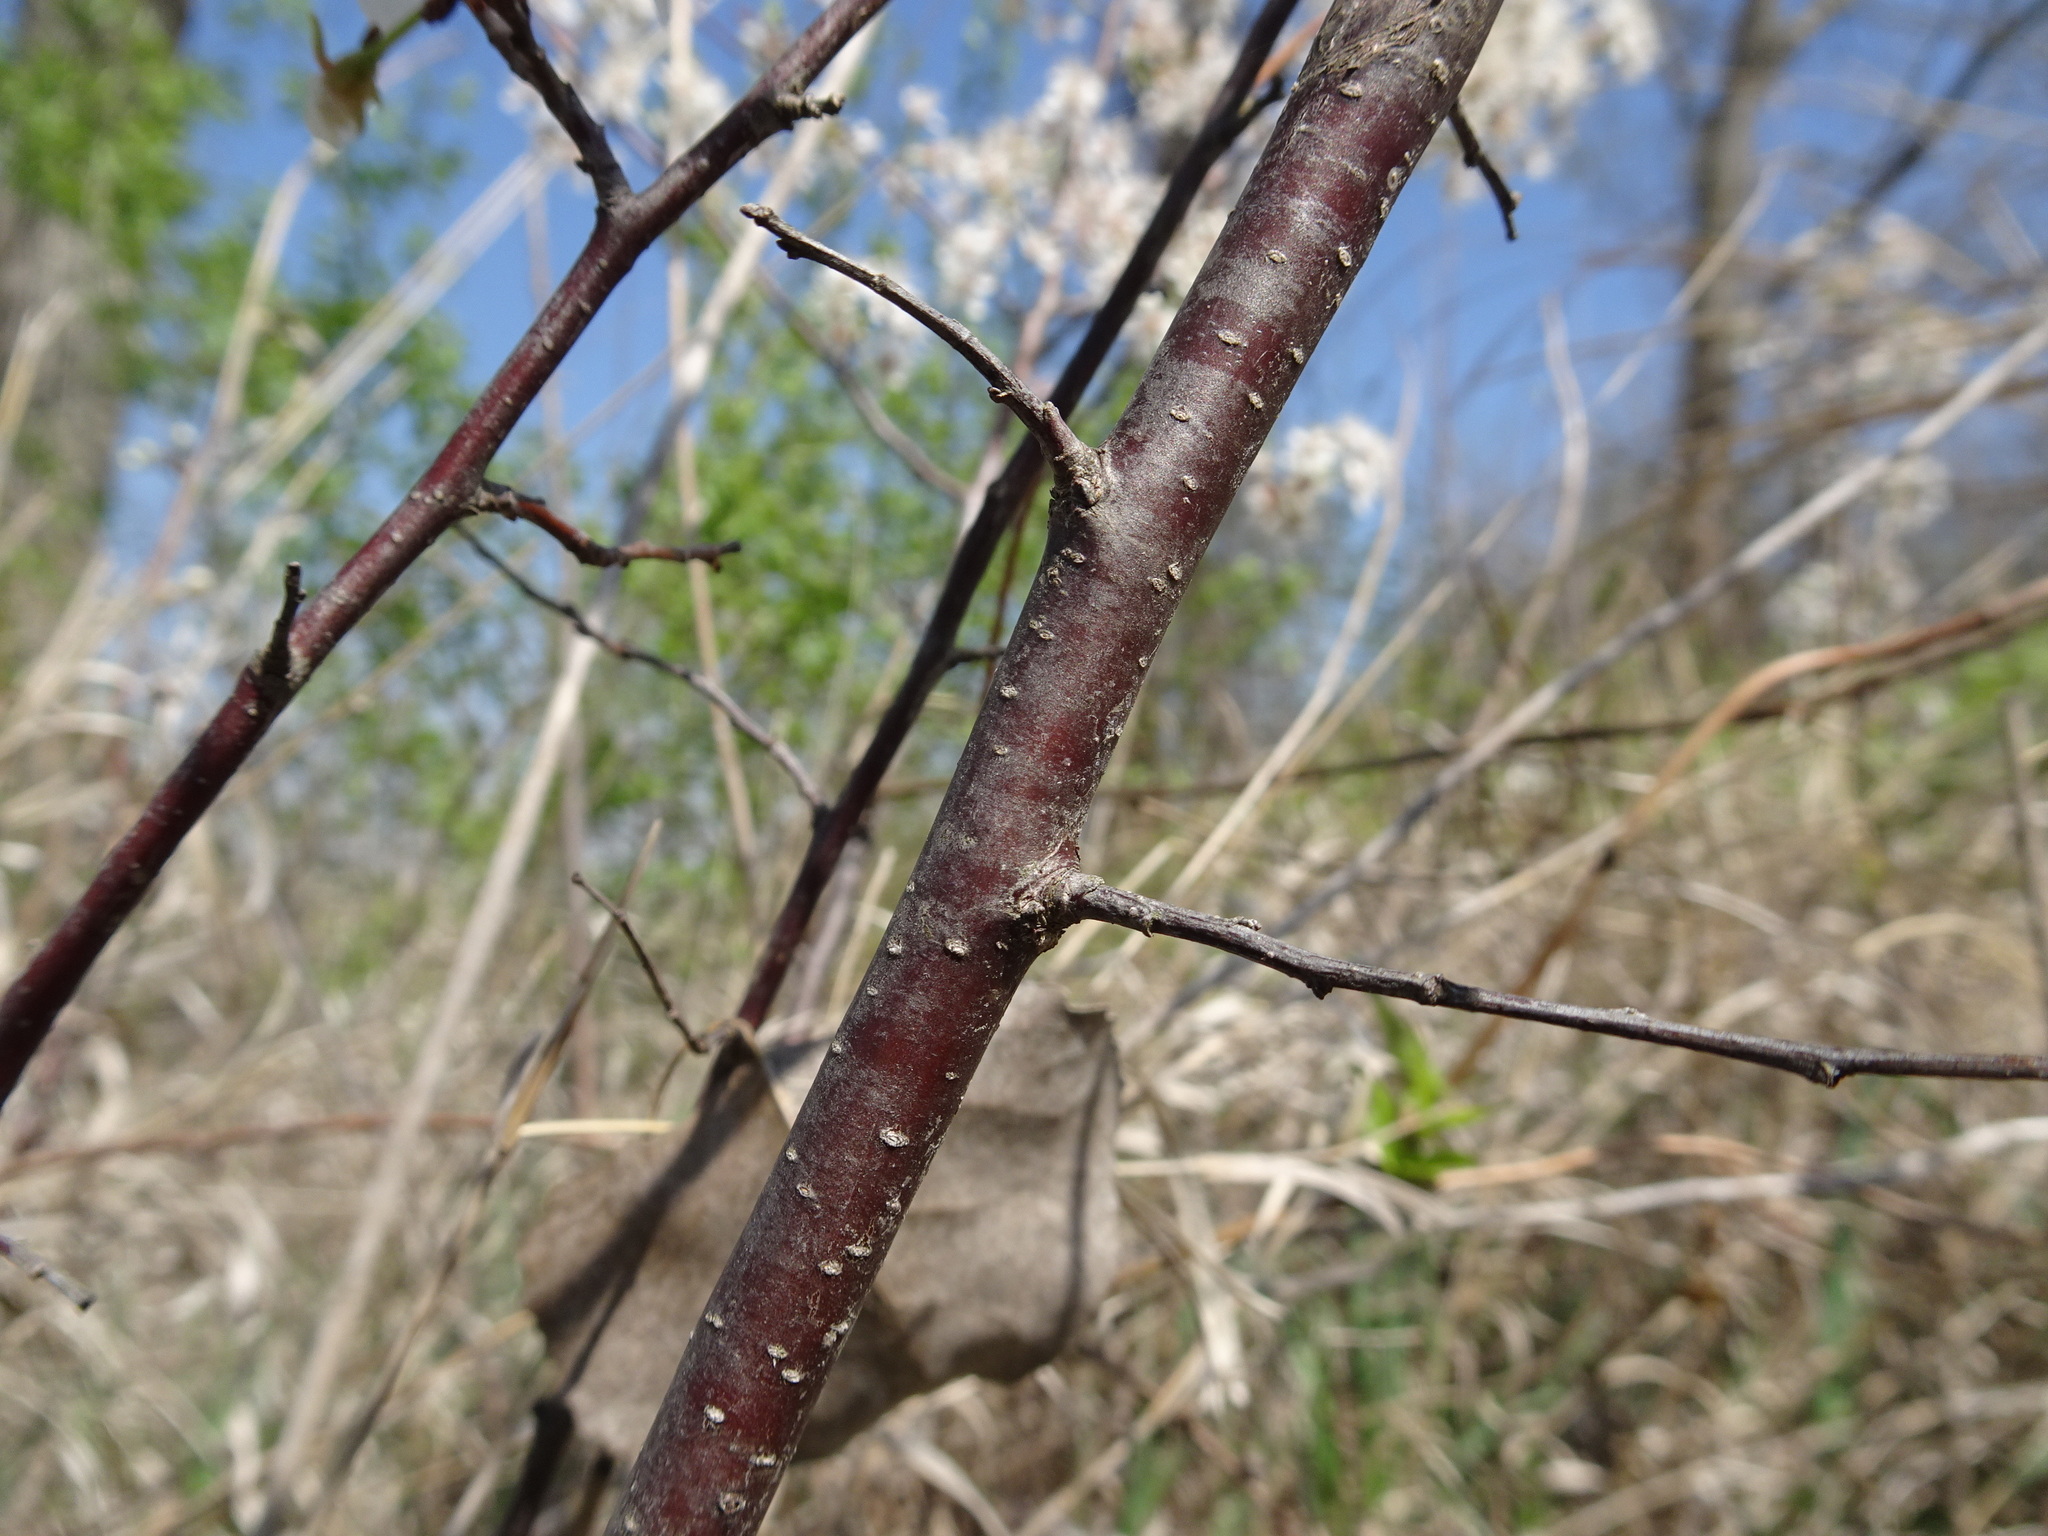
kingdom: Plantae
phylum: Tracheophyta
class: Magnoliopsida
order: Rosales
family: Rosaceae
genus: Prunus
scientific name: Prunus americana
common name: American plum
